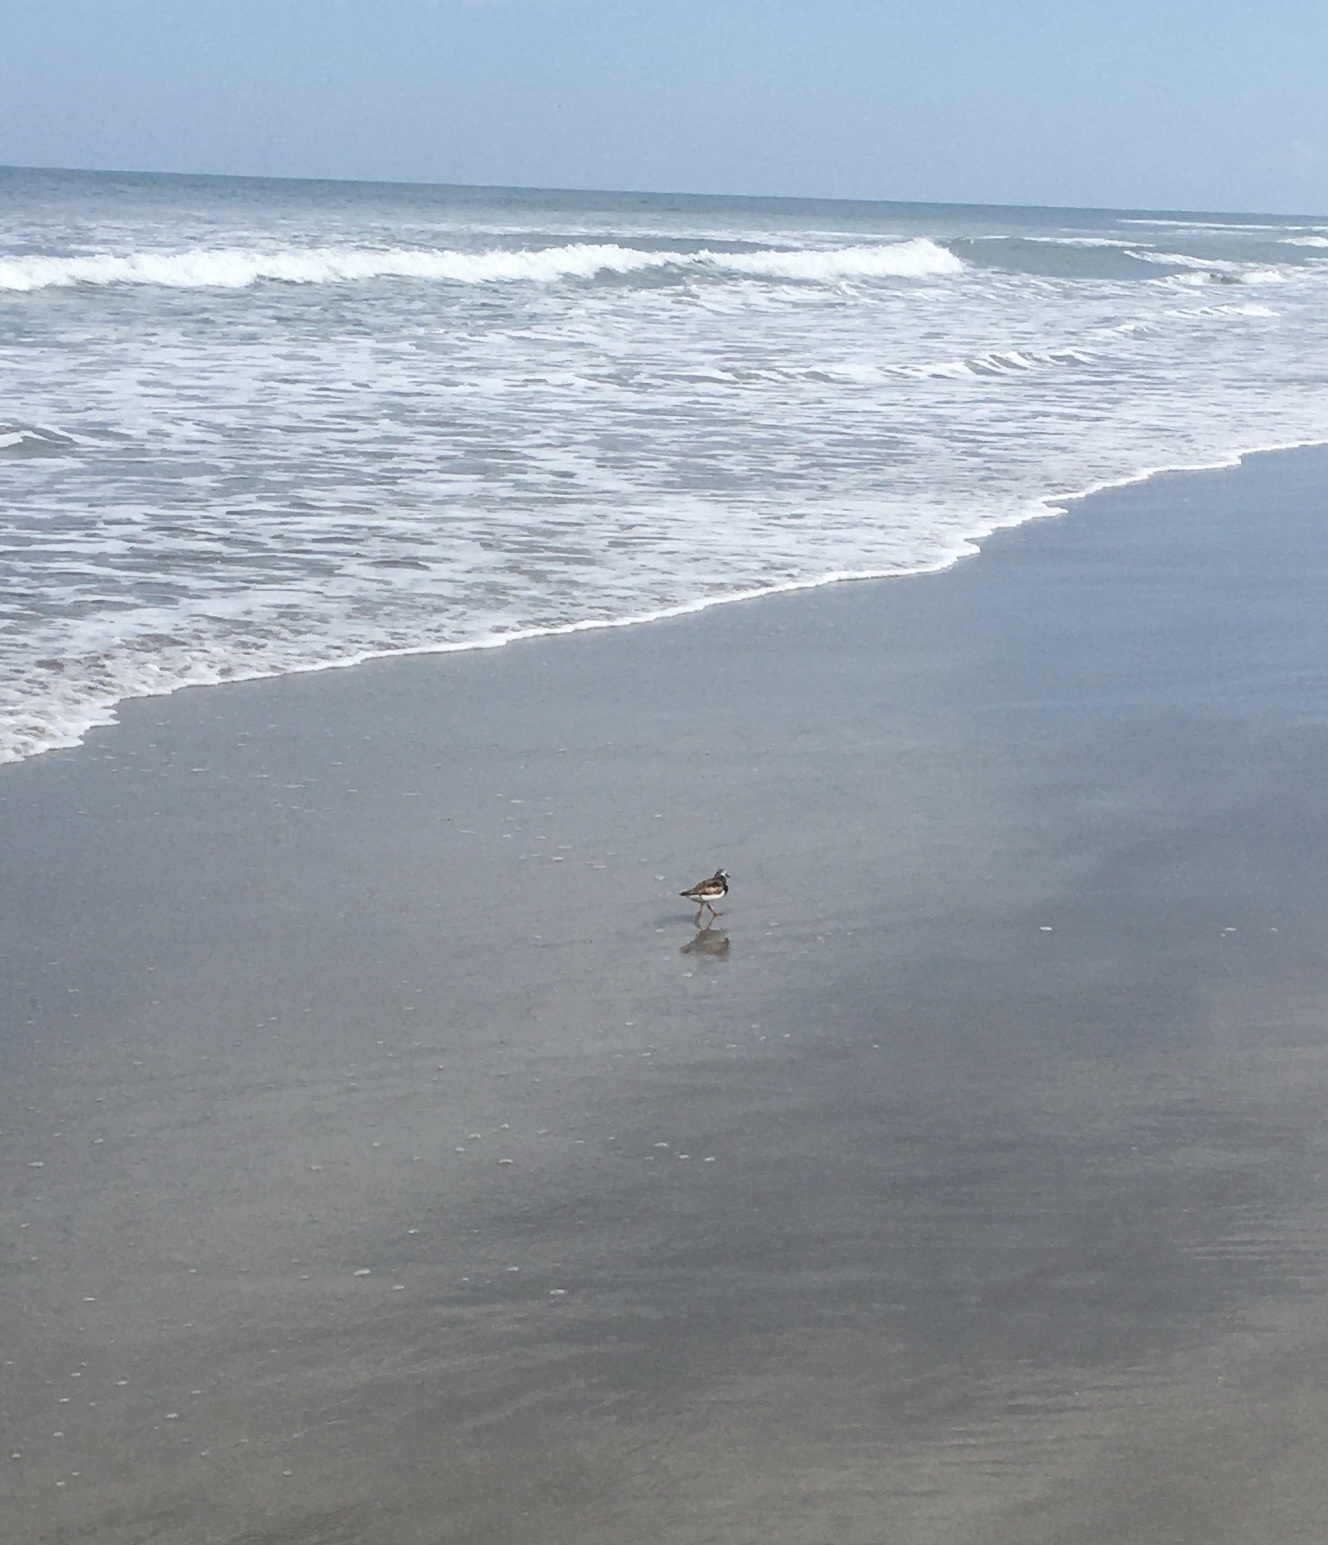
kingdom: Animalia
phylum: Chordata
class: Aves
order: Charadriiformes
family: Scolopacidae
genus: Arenaria
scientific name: Arenaria interpres
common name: Ruddy turnstone
